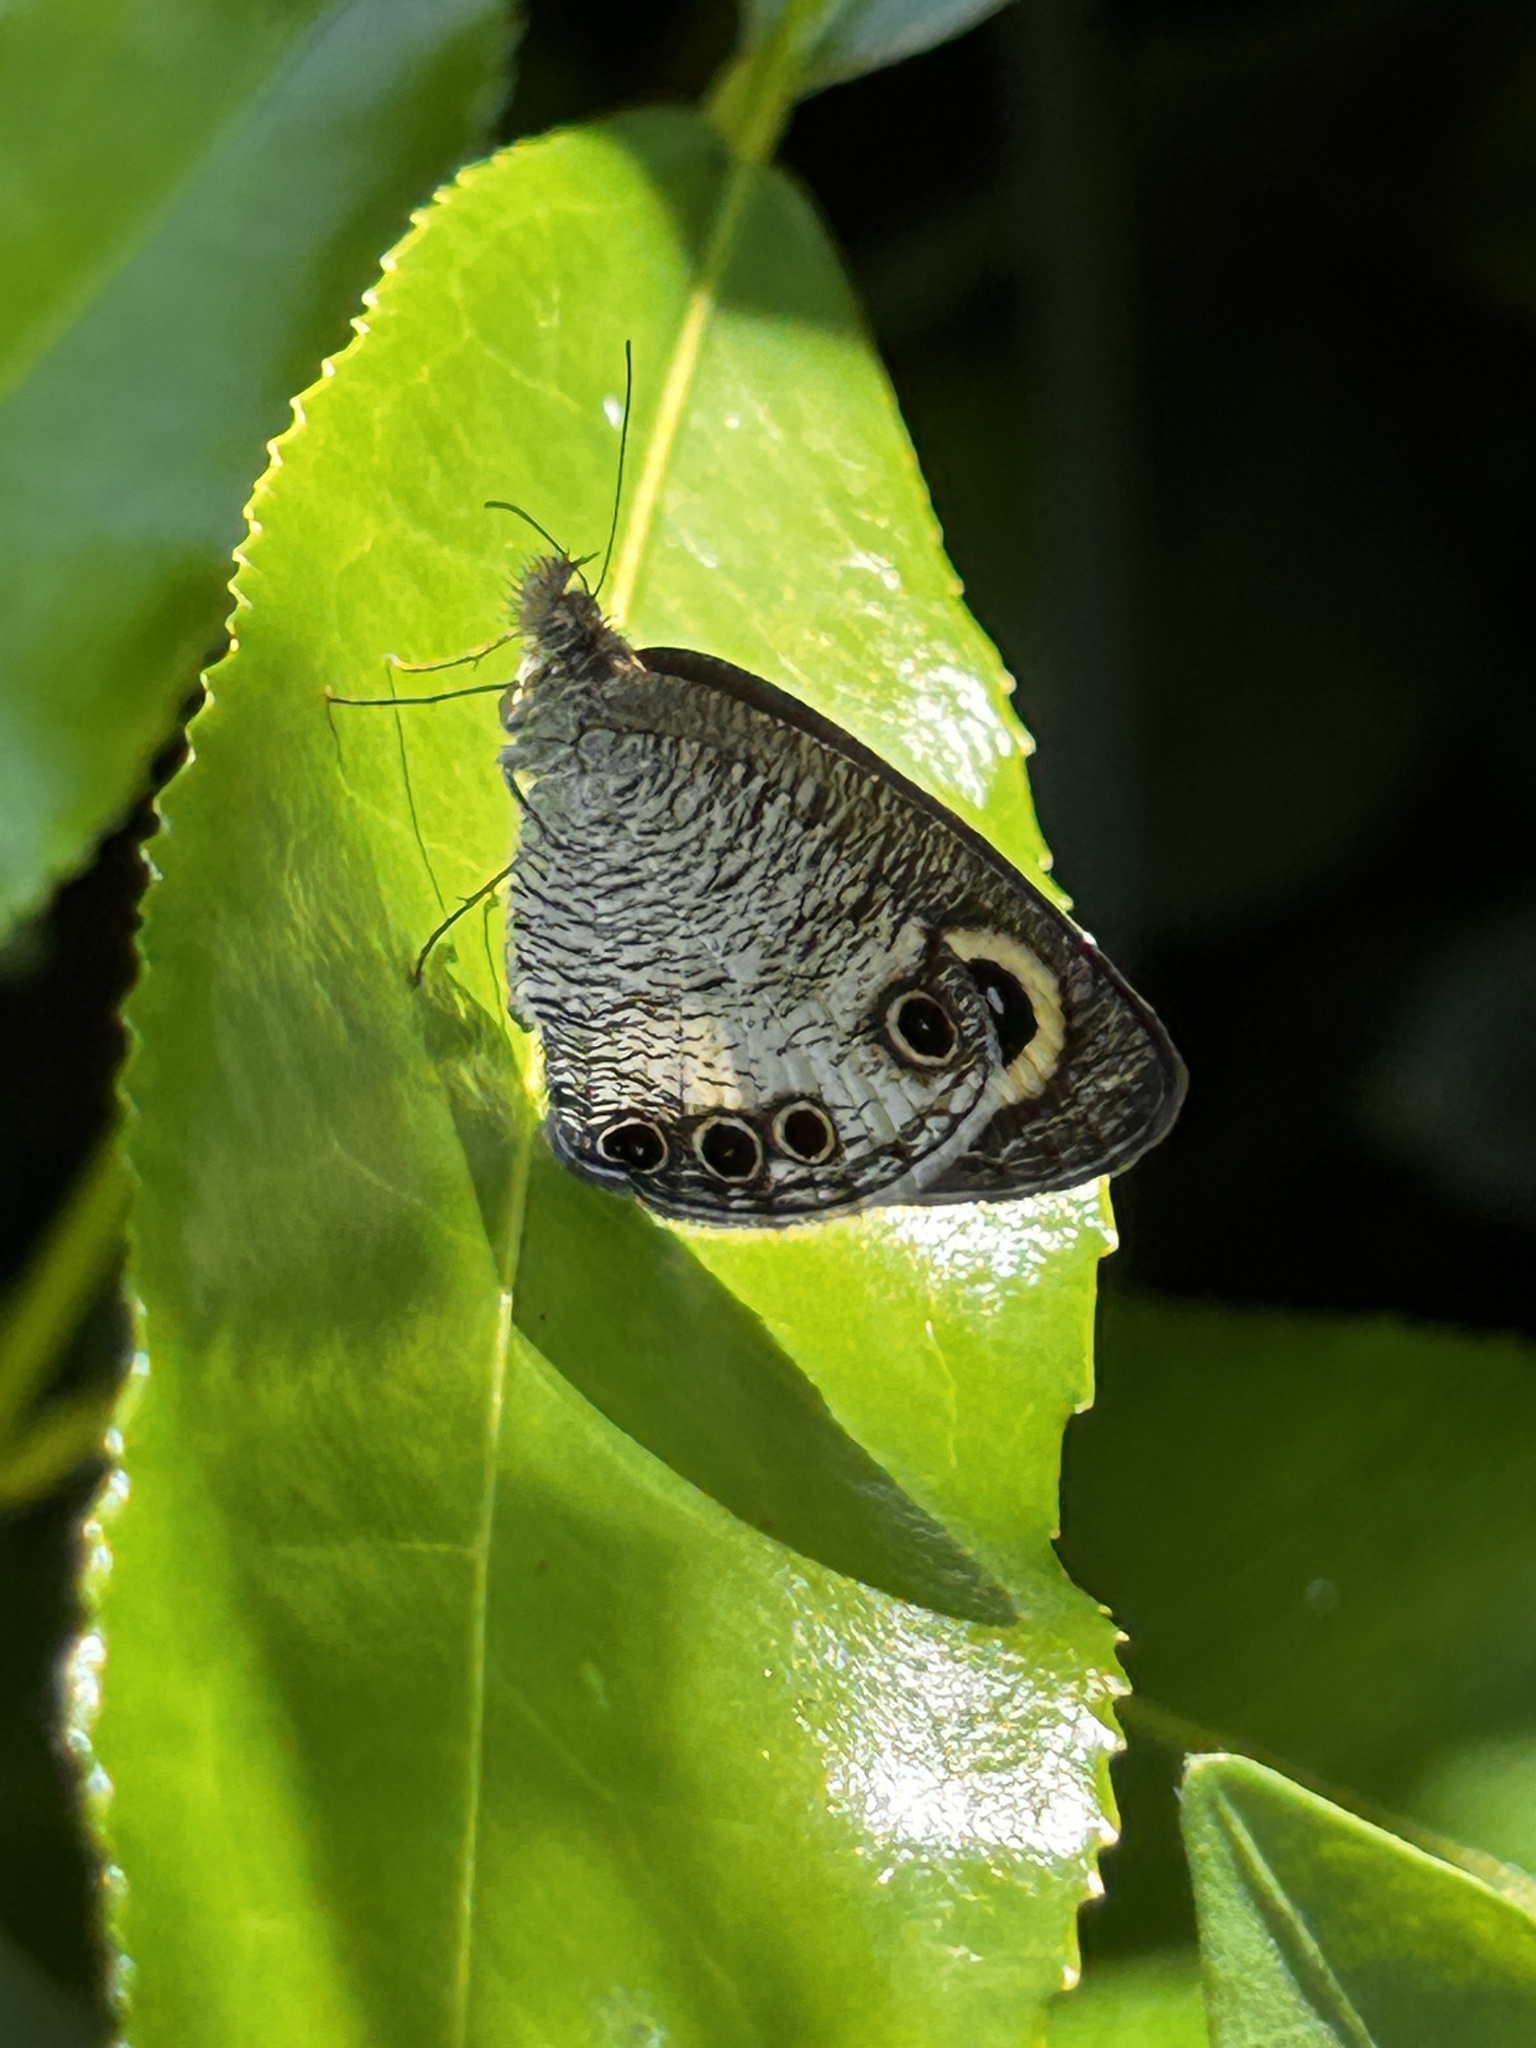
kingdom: Animalia
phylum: Arthropoda
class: Insecta
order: Lepidoptera
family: Nymphalidae
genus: Ypthima
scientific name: Ypthima ceylonica
